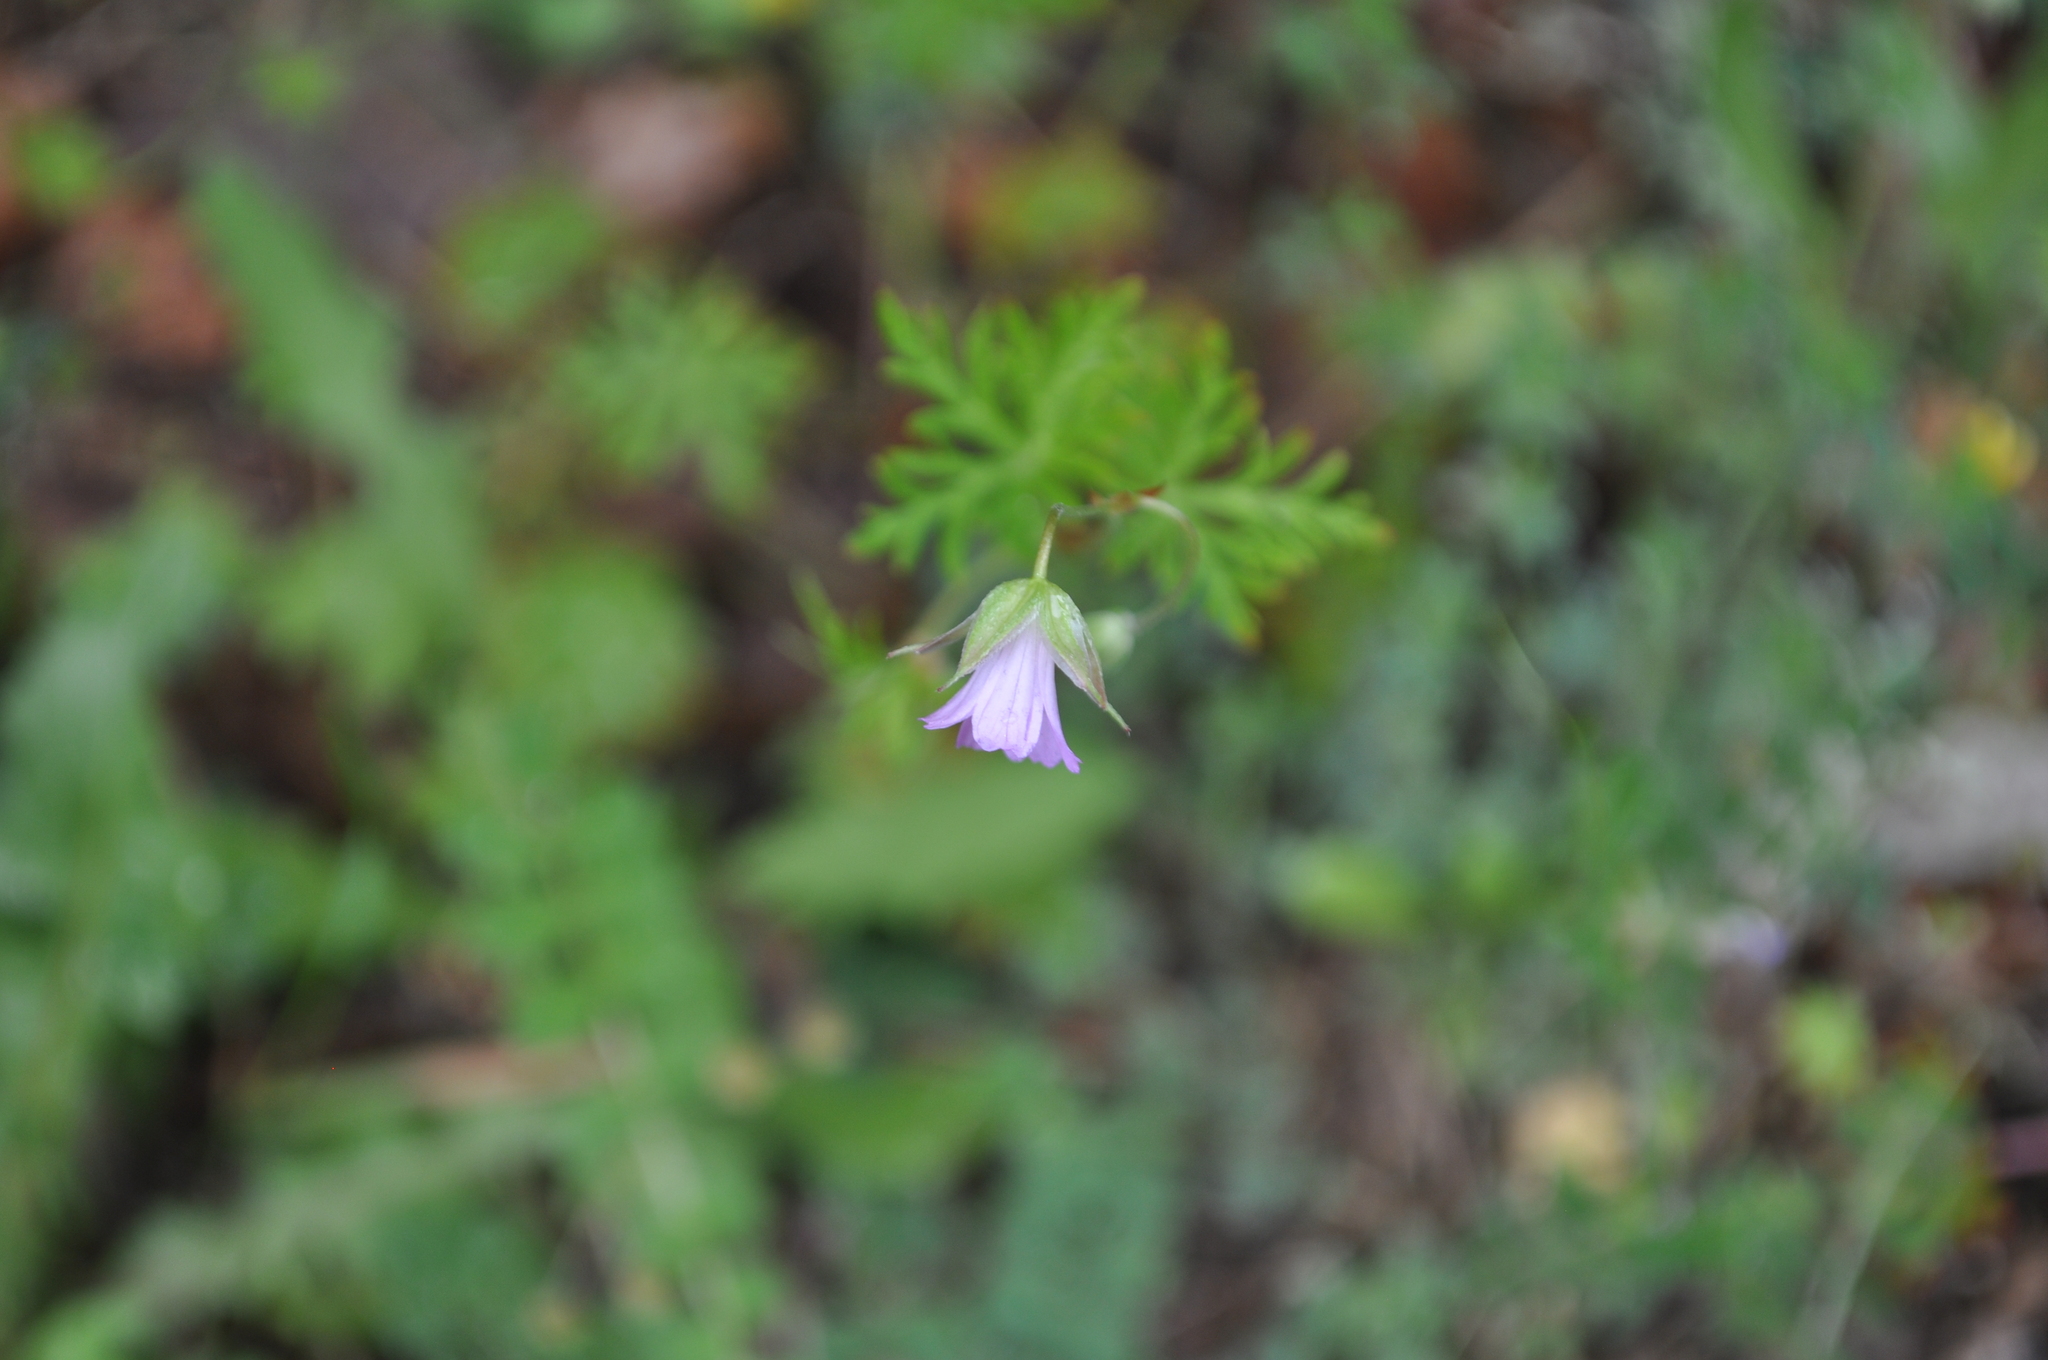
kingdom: Plantae
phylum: Tracheophyta
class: Magnoliopsida
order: Geraniales
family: Geraniaceae
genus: Geranium
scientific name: Geranium columbinum
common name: Long-stalked crane's-bill
